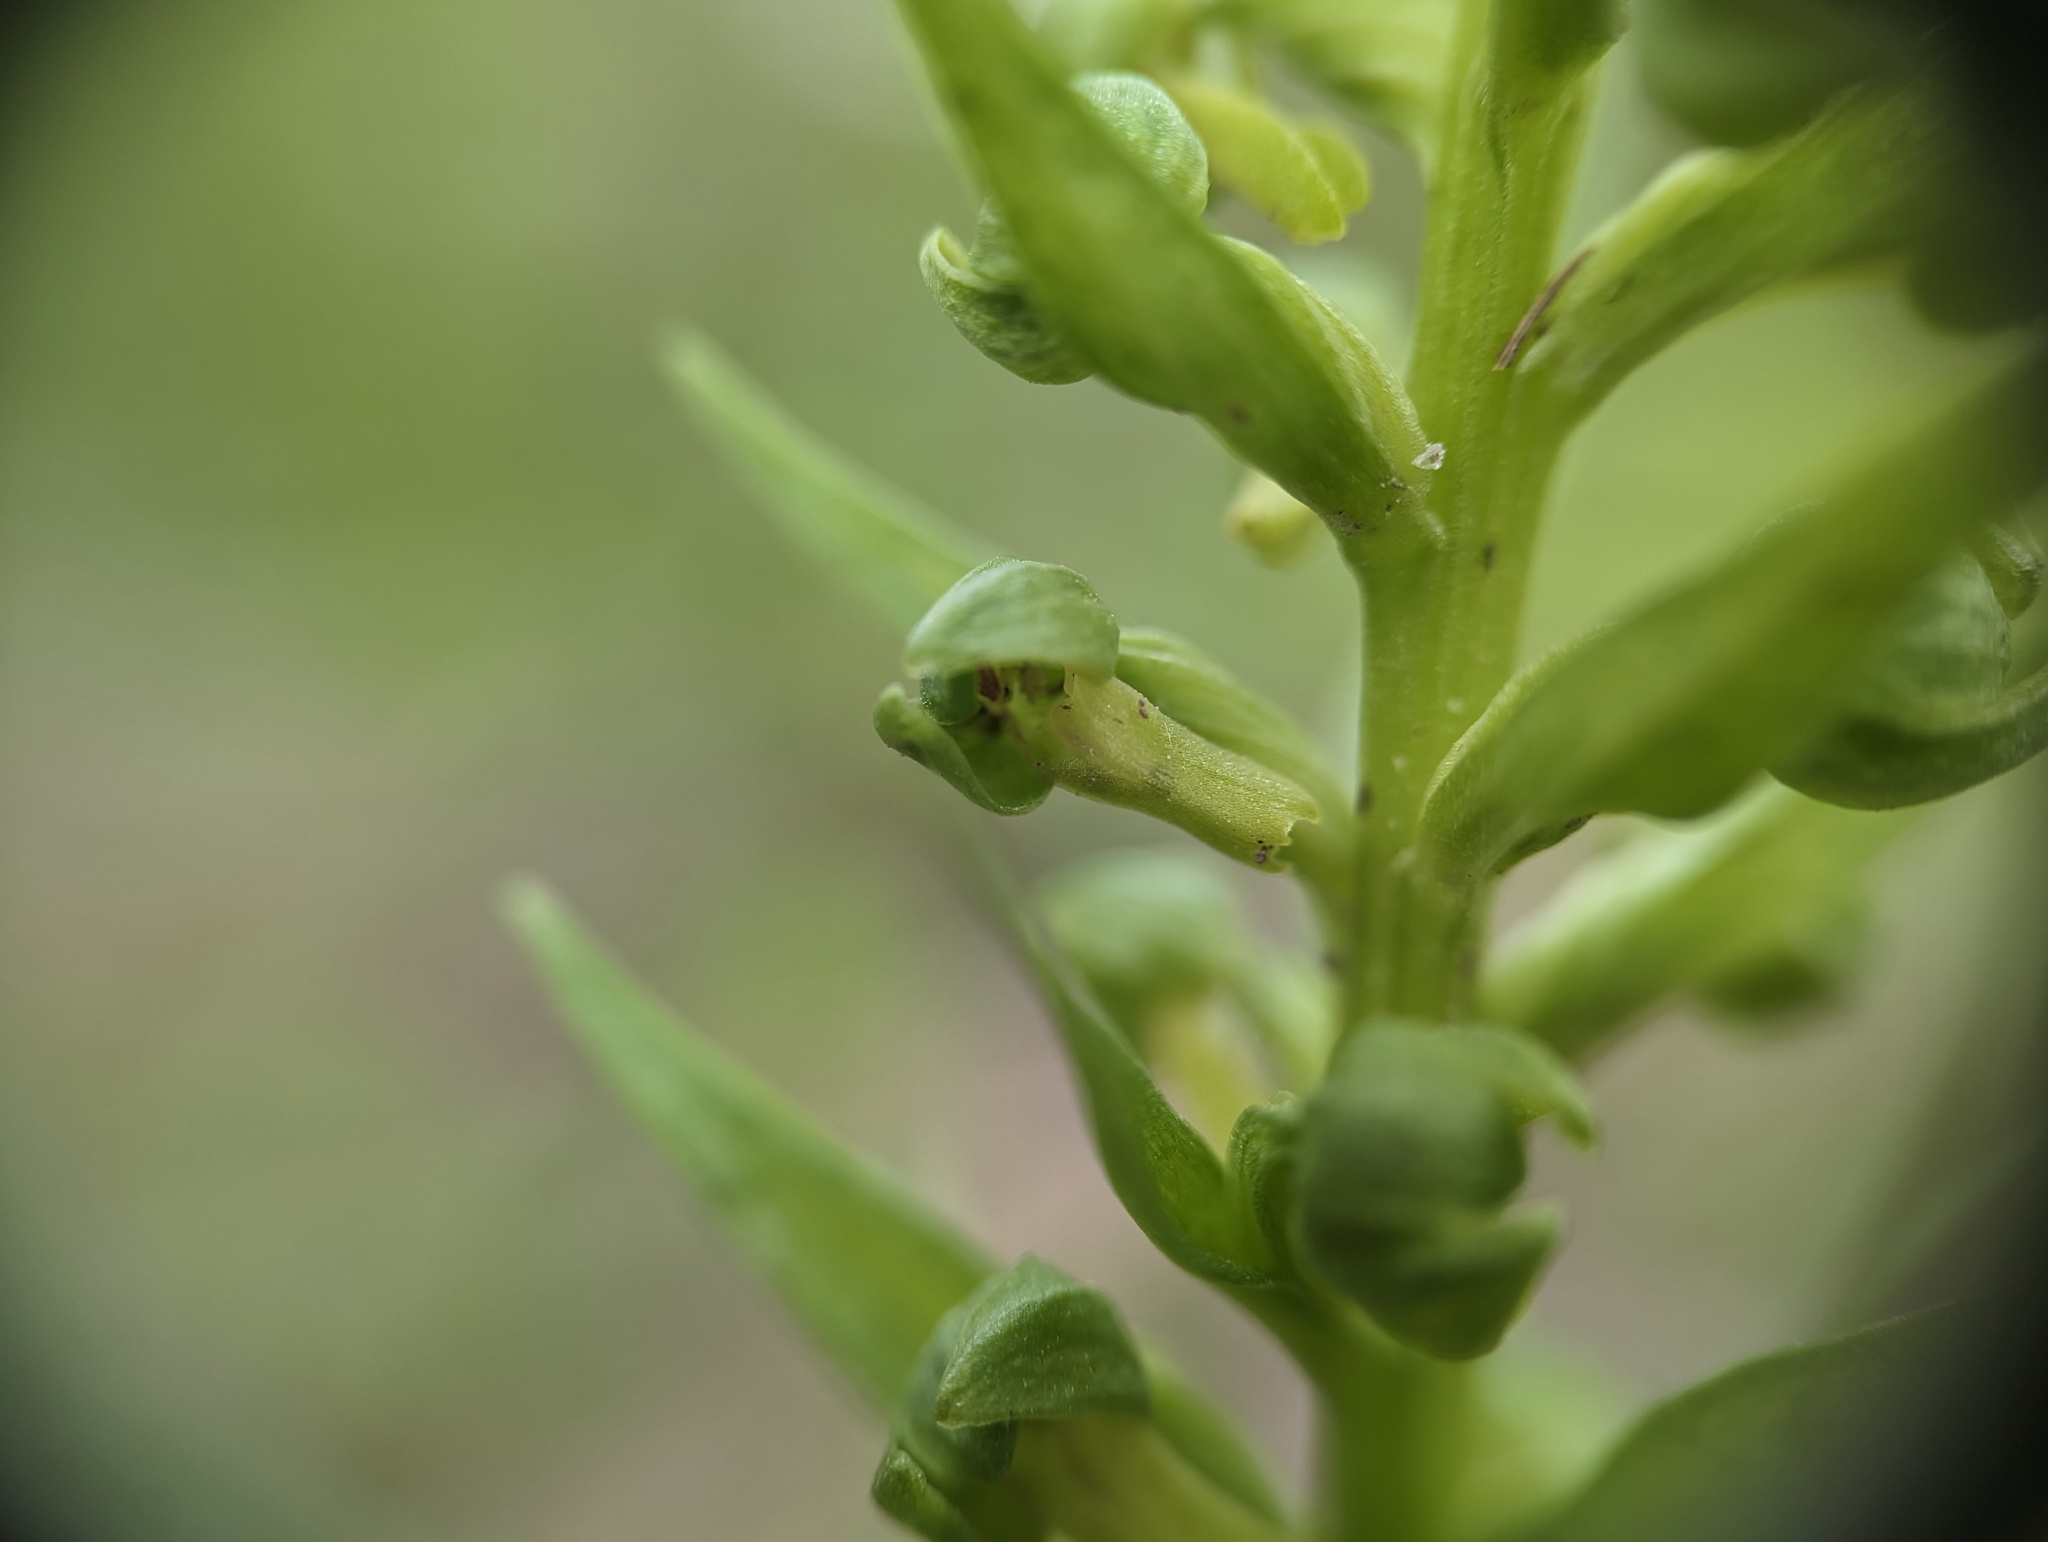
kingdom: Plantae
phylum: Tracheophyta
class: Liliopsida
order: Asparagales
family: Orchidaceae
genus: Dactylorhiza
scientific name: Dactylorhiza viridis
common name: Longbract frog orchid
